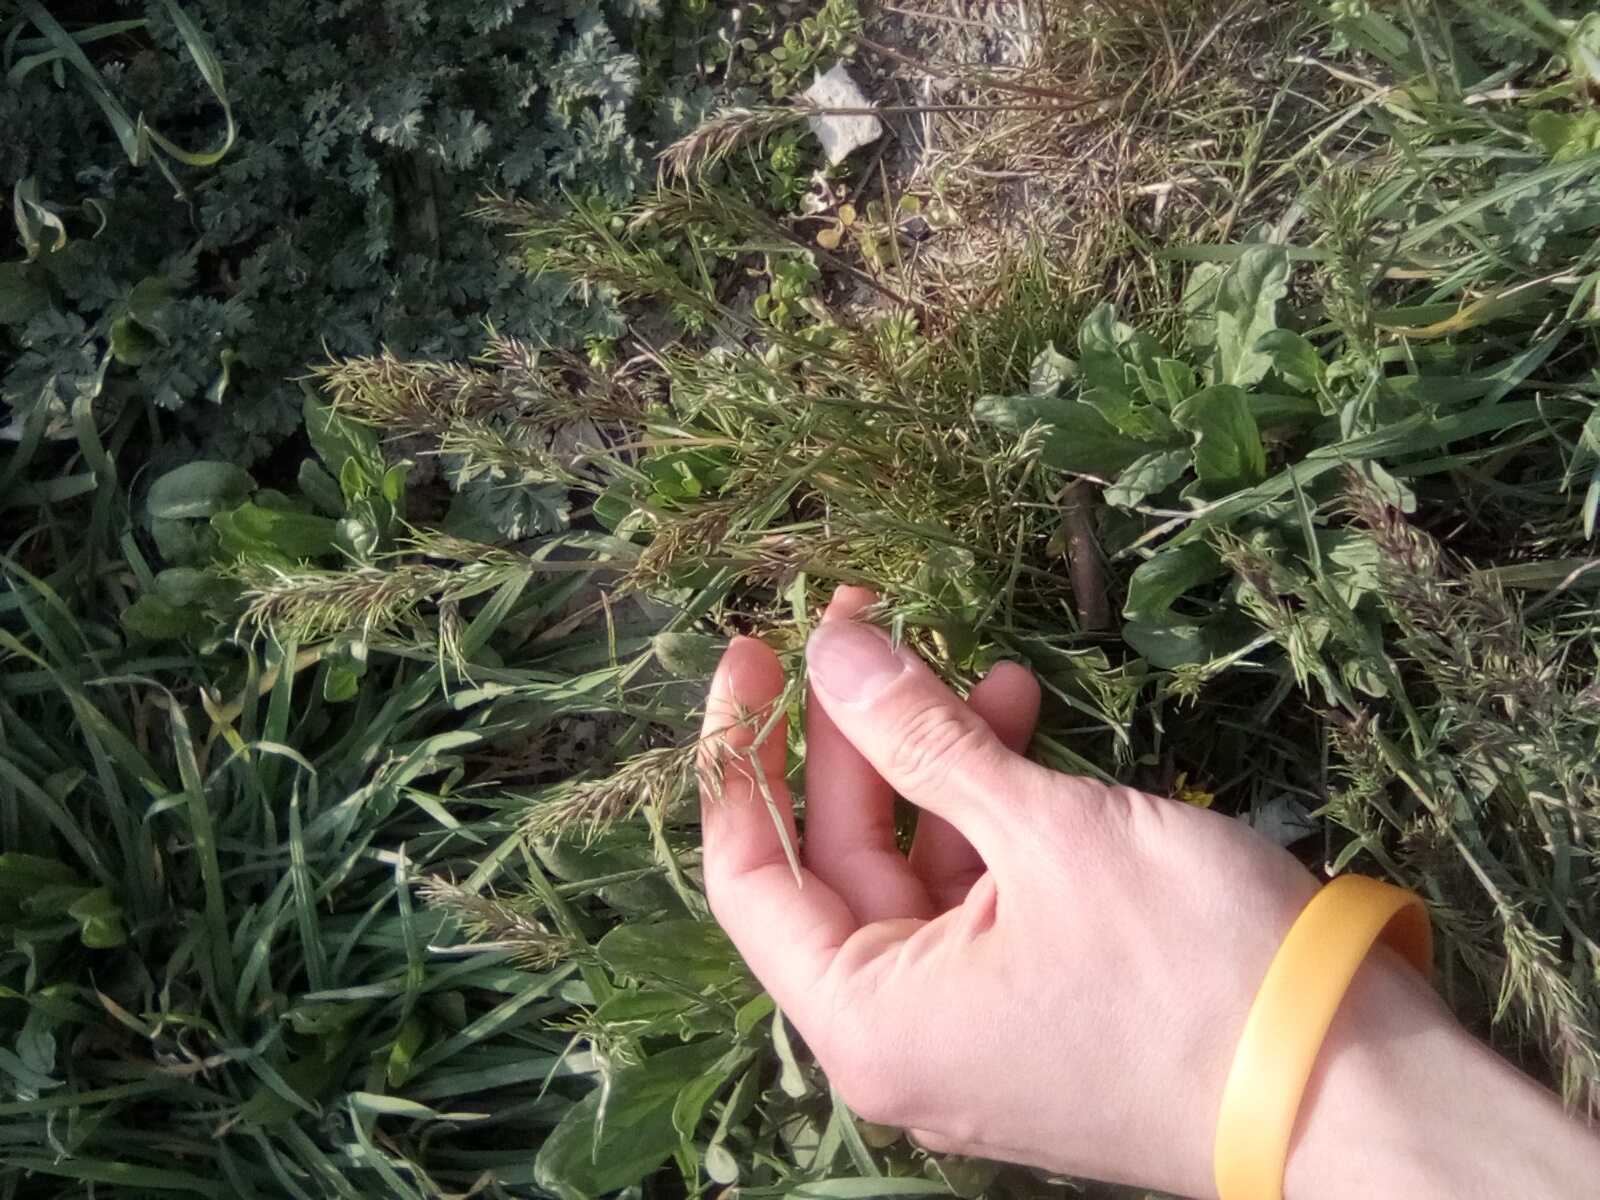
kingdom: Plantae
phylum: Tracheophyta
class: Liliopsida
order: Poales
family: Poaceae
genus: Poa
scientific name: Poa bulbosa
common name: Bulbous bluegrass
